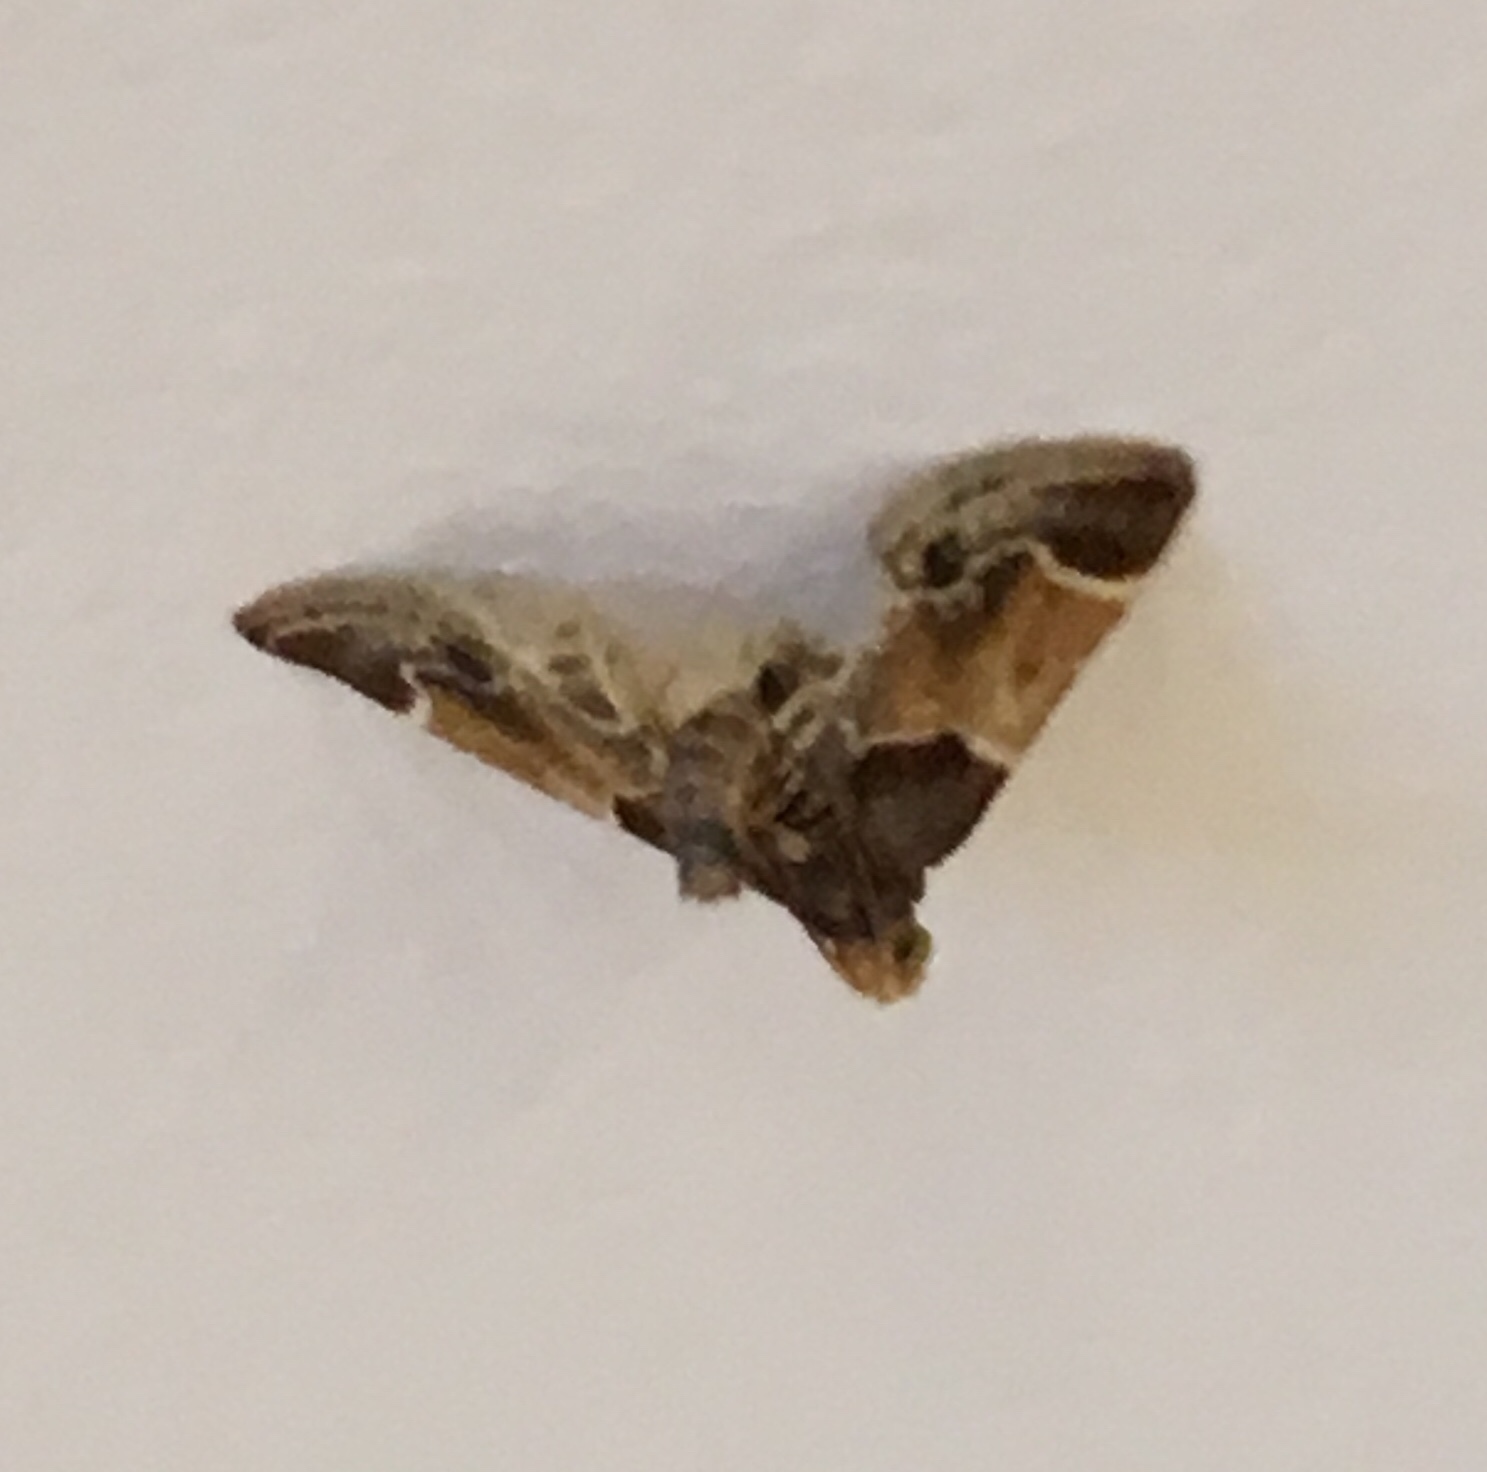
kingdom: Animalia
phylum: Arthropoda
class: Insecta
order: Lepidoptera
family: Pyralidae
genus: Pyralis
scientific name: Pyralis farinalis
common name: Meal moth
